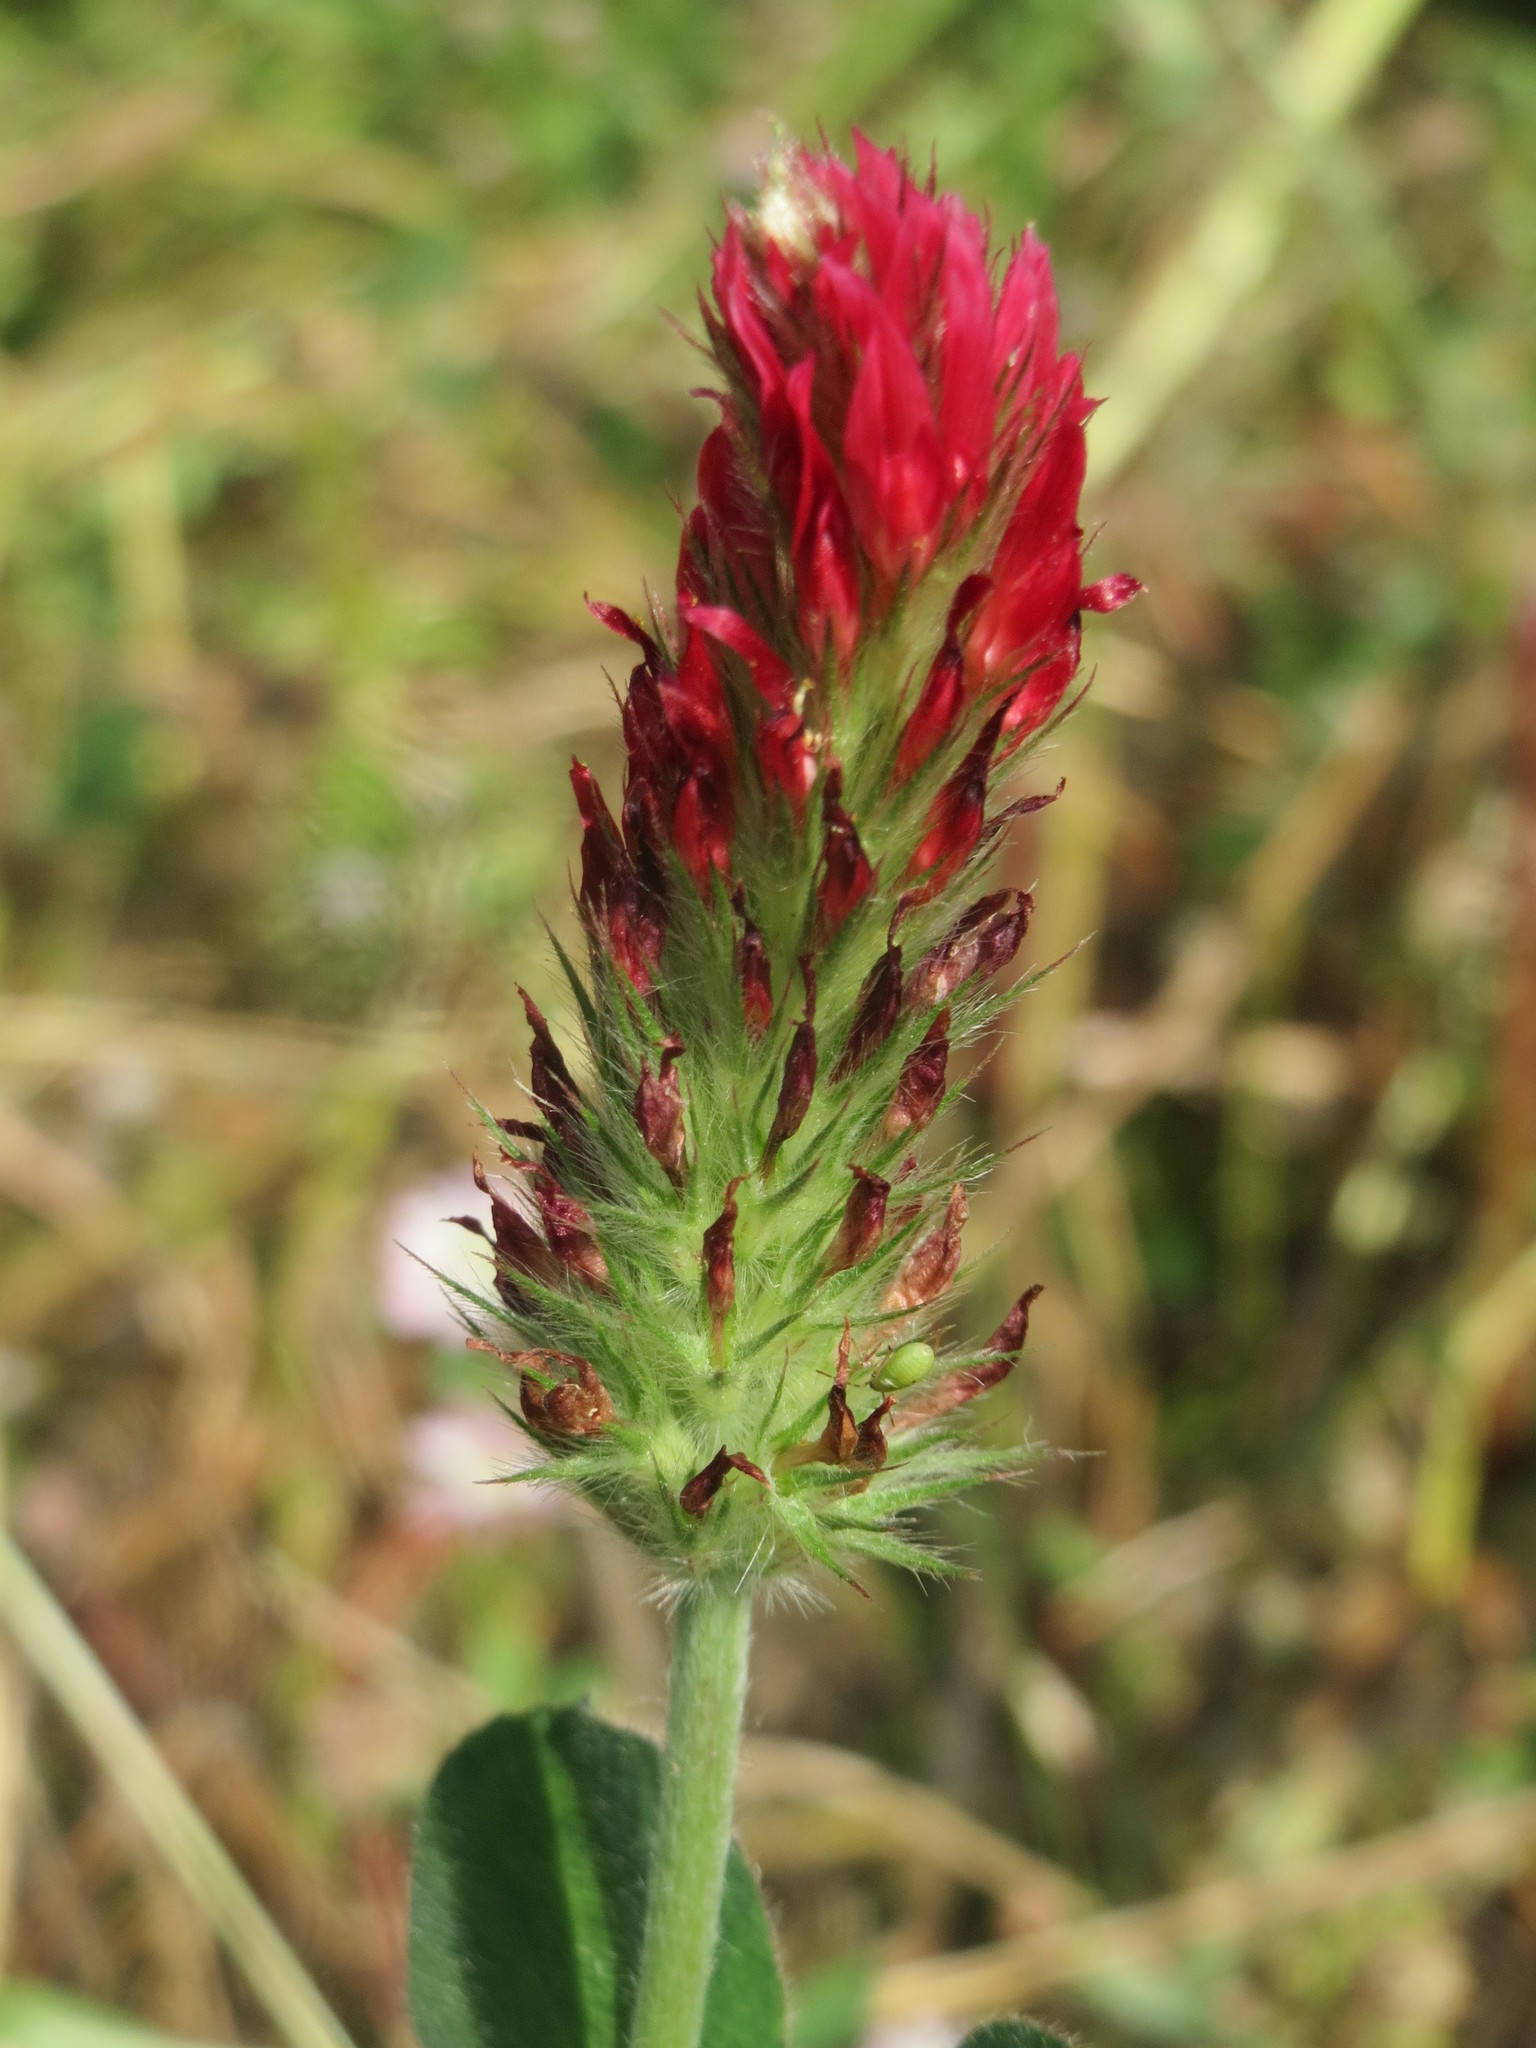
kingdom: Plantae
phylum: Tracheophyta
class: Magnoliopsida
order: Fabales
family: Fabaceae
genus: Trifolium
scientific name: Trifolium incarnatum
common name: Crimson clover
